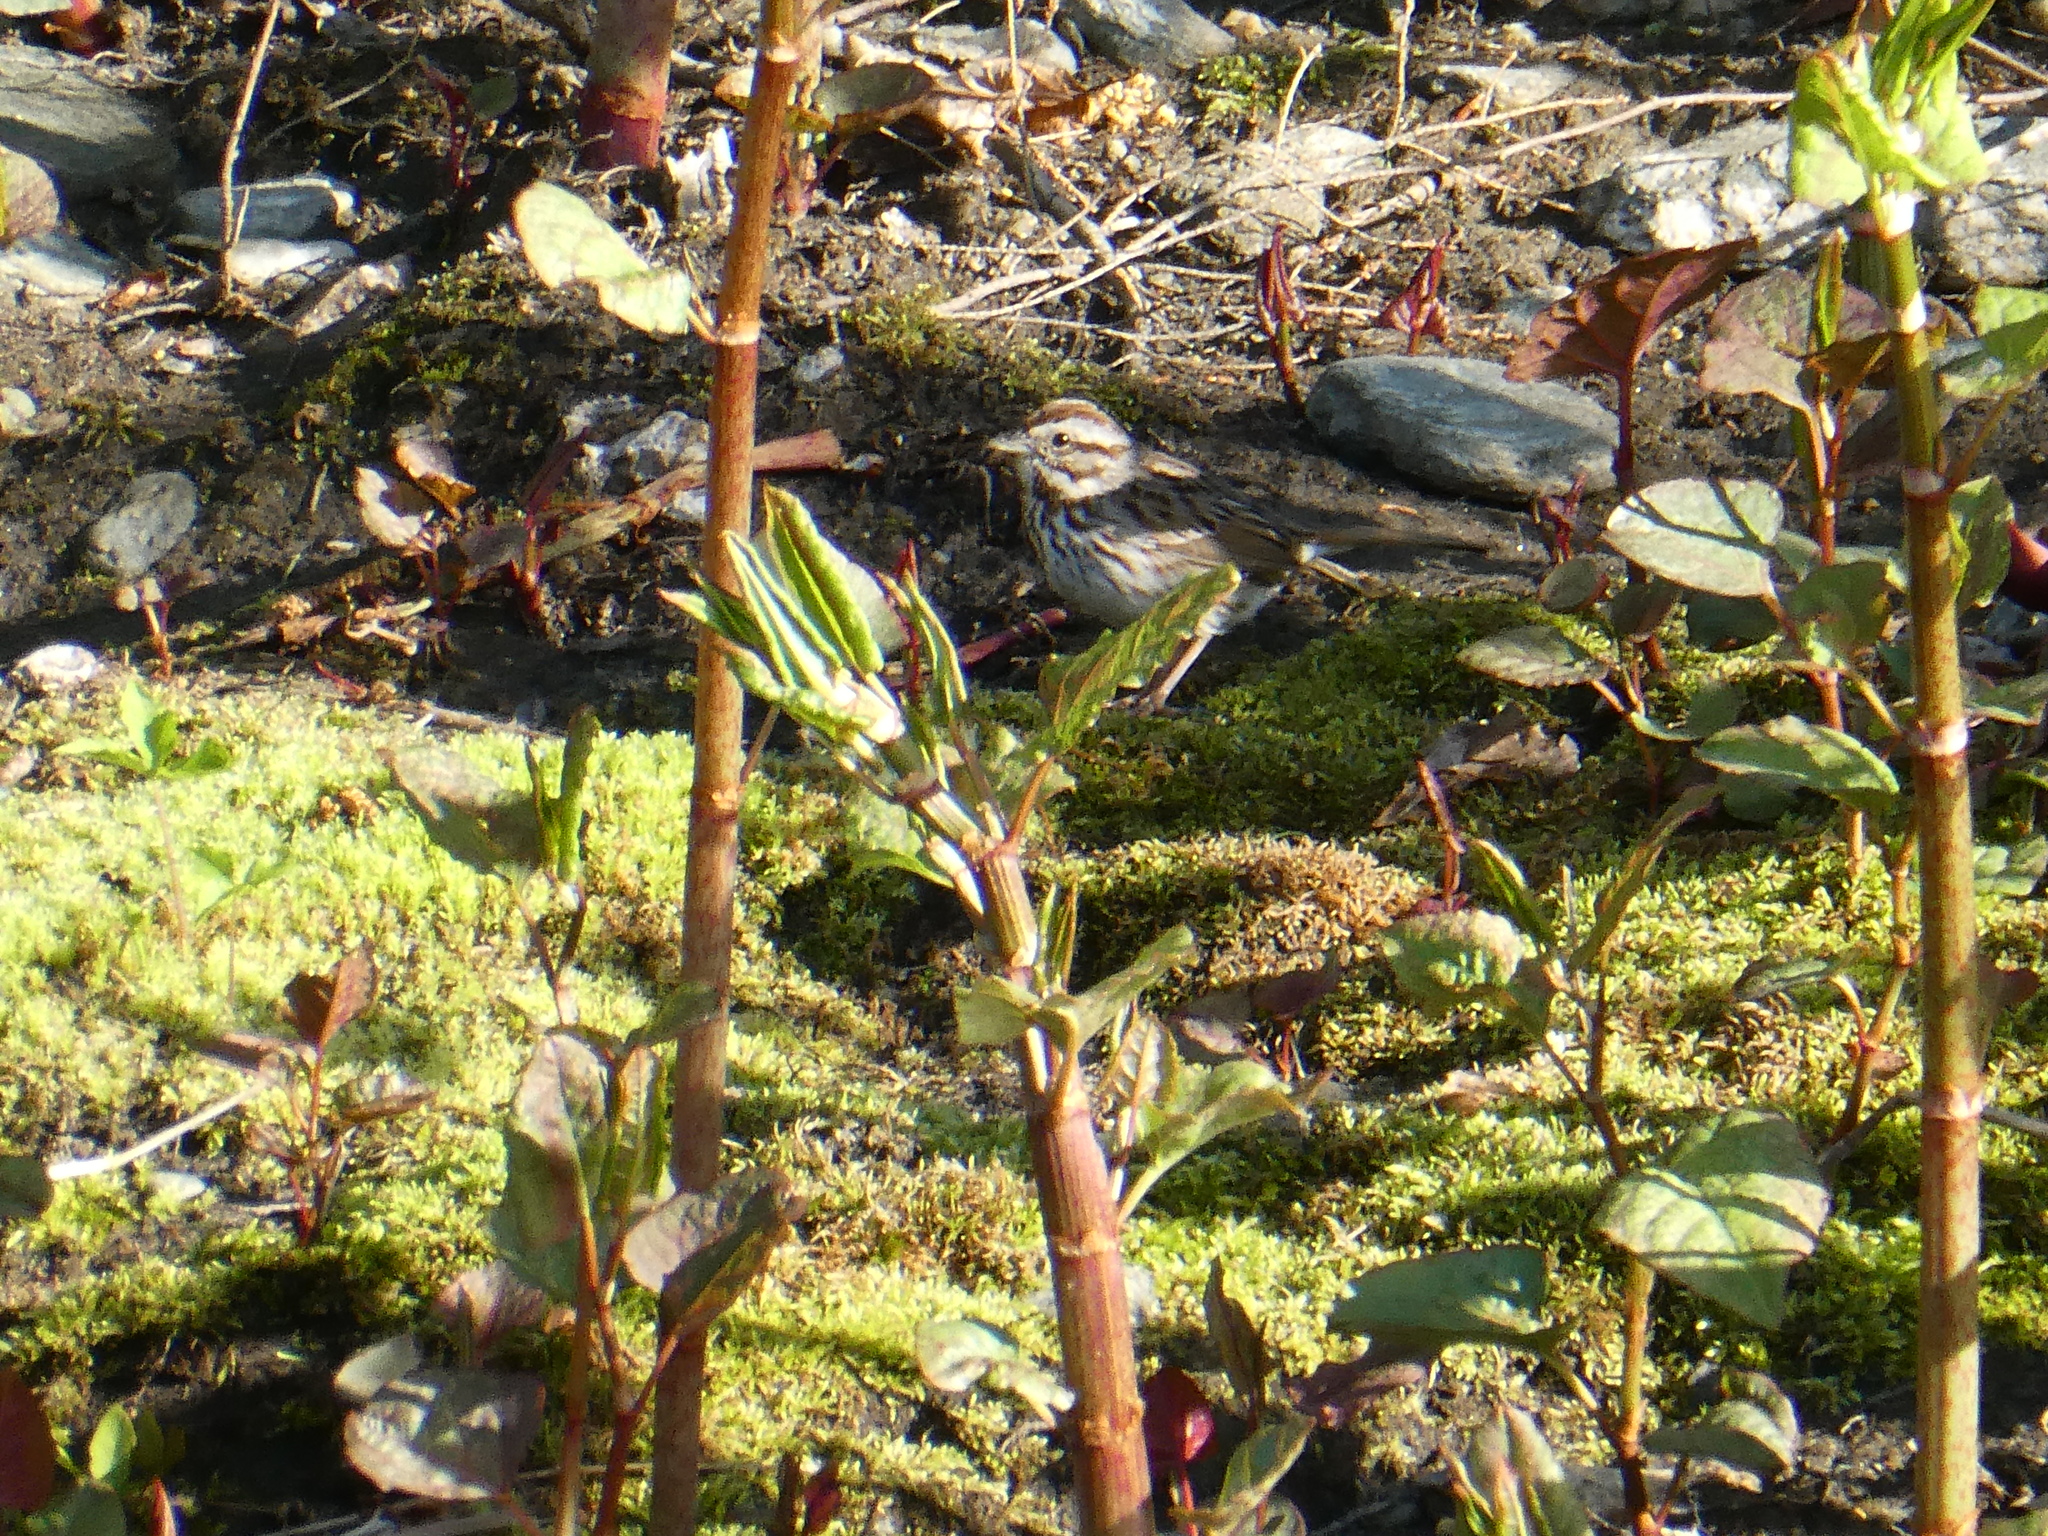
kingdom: Animalia
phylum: Chordata
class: Aves
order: Passeriformes
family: Passerellidae
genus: Melospiza
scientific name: Melospiza melodia
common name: Song sparrow
